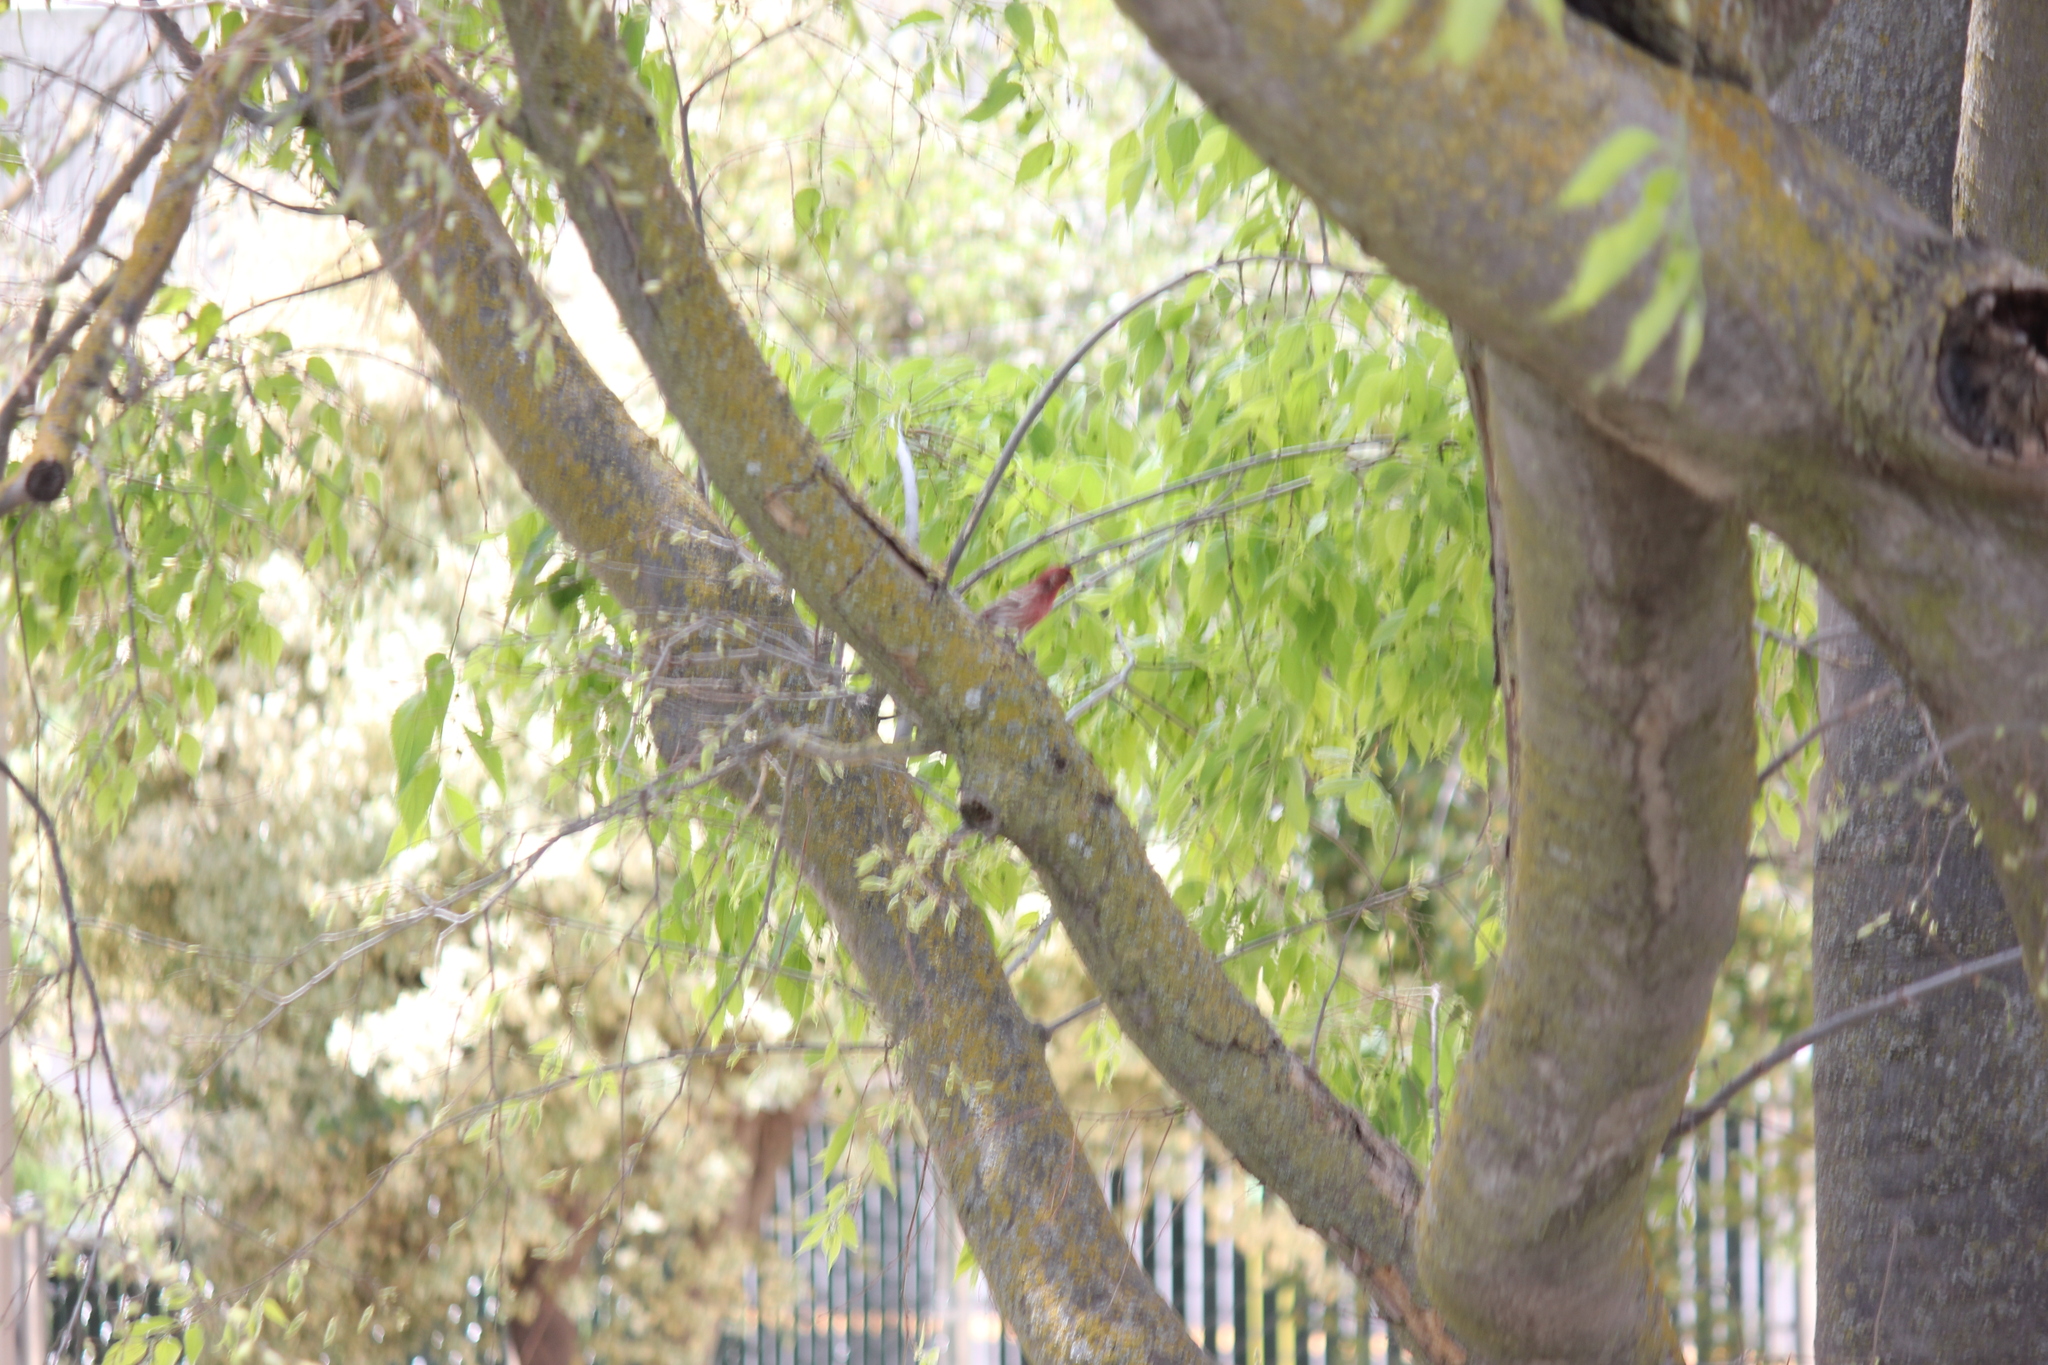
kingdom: Animalia
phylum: Chordata
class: Aves
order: Passeriformes
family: Fringillidae
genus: Haemorhous
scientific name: Haemorhous mexicanus
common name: House finch
